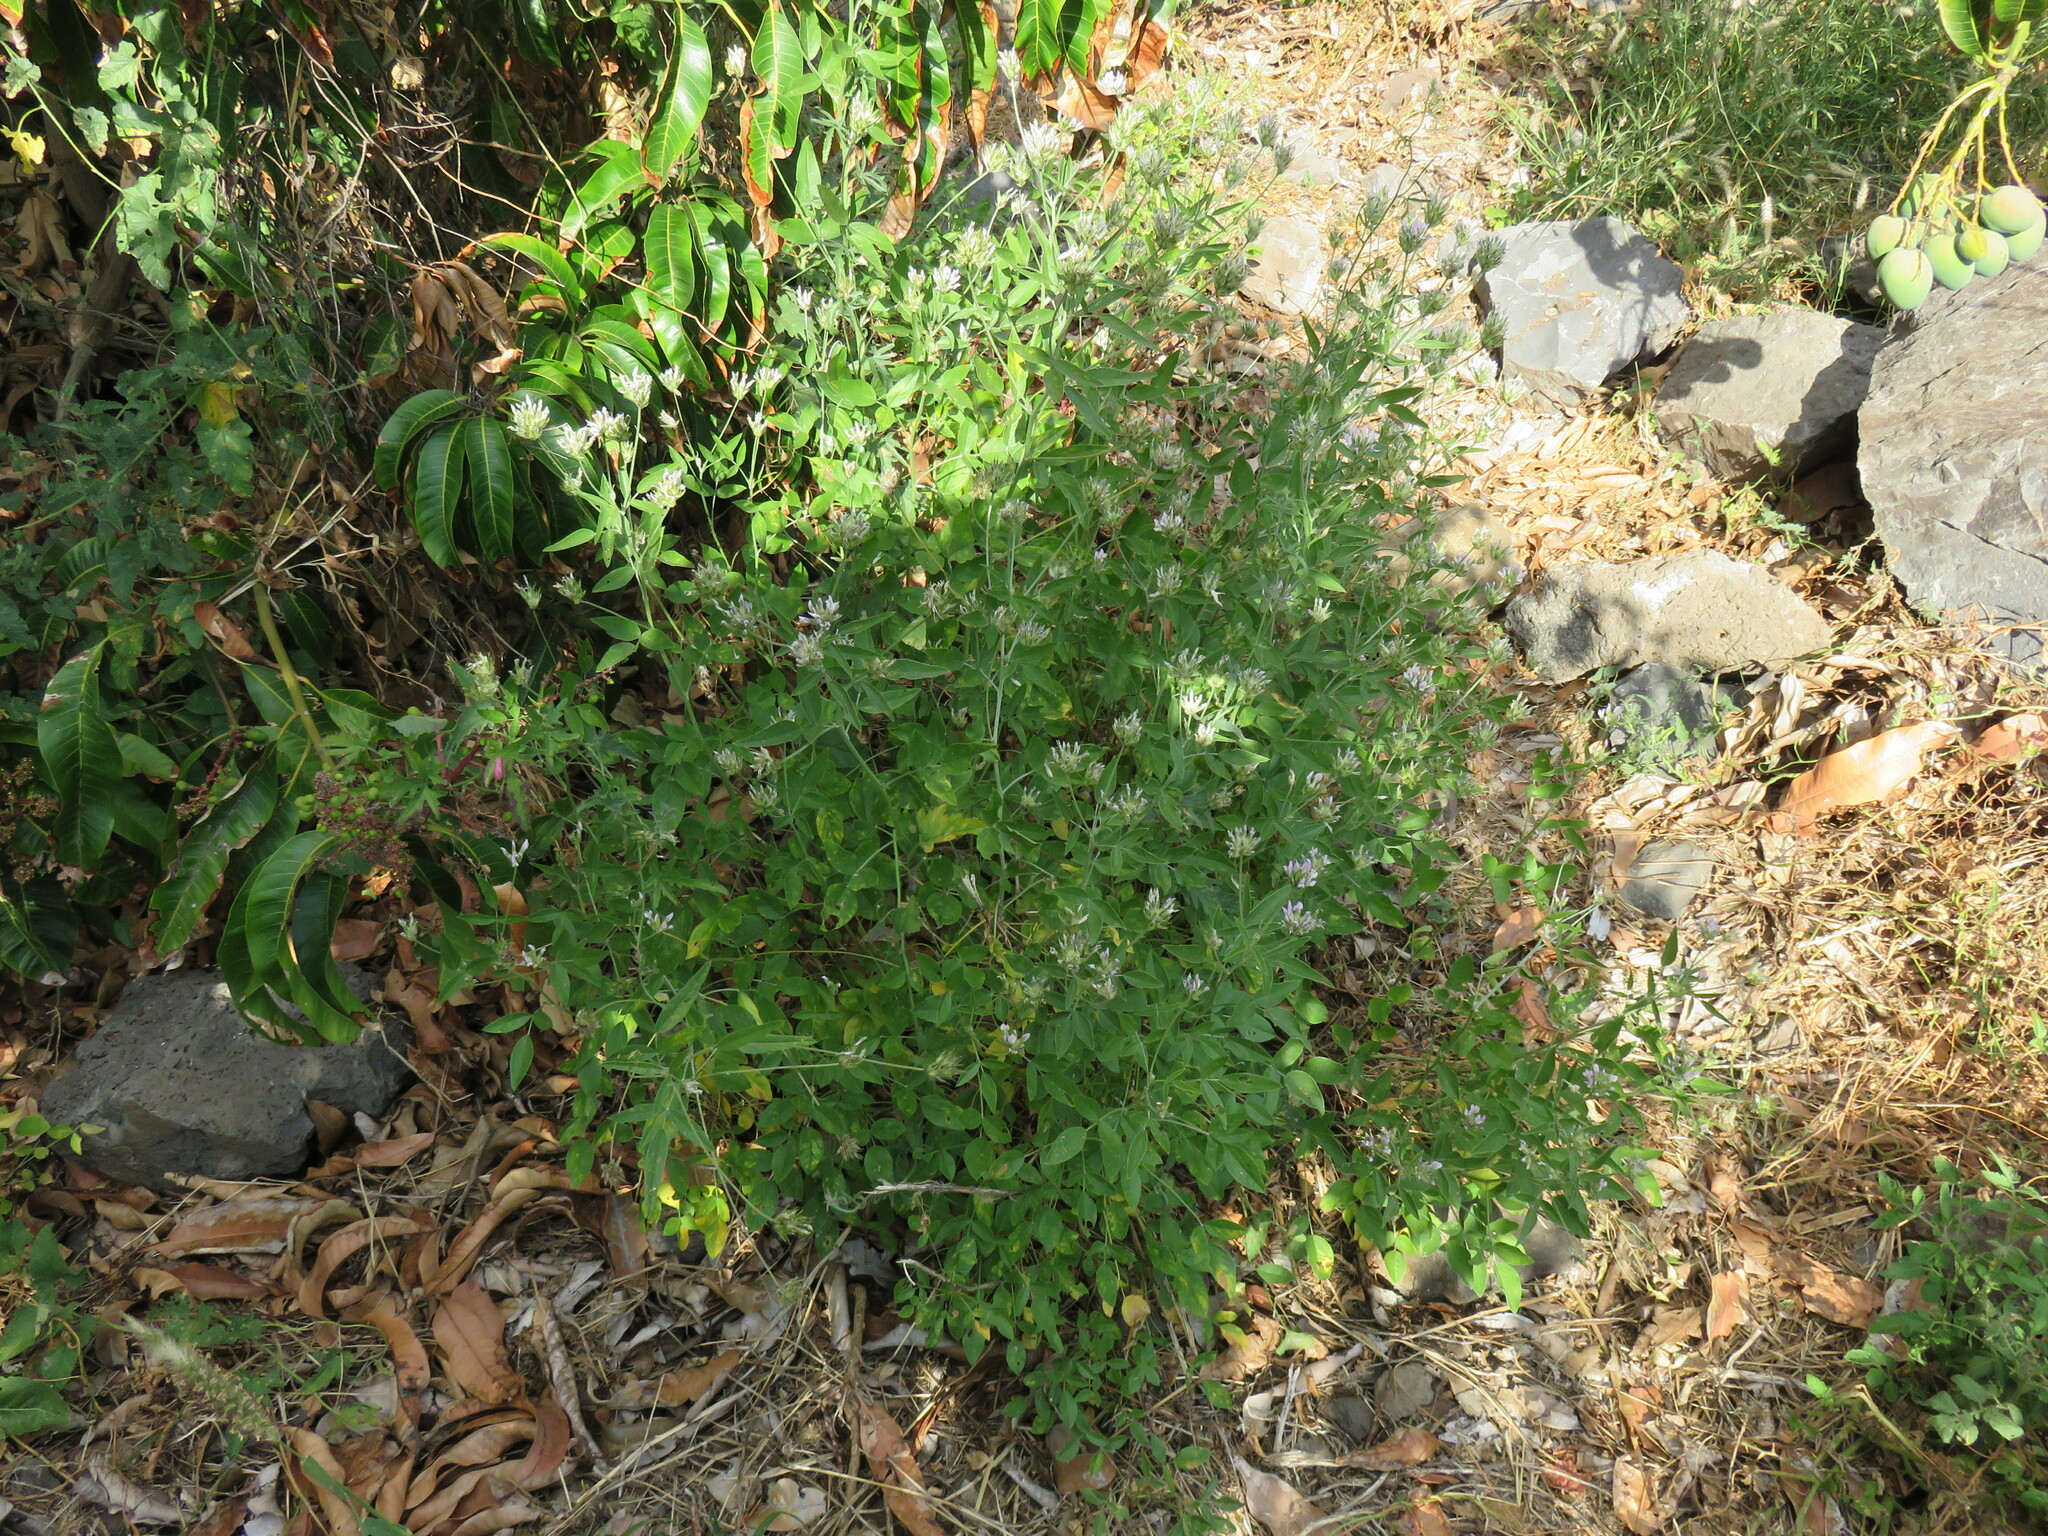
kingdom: Plantae
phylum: Tracheophyta
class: Magnoliopsida
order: Fabales
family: Fabaceae
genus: Bituminaria
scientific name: Bituminaria bituminosa
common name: Arabian pea
